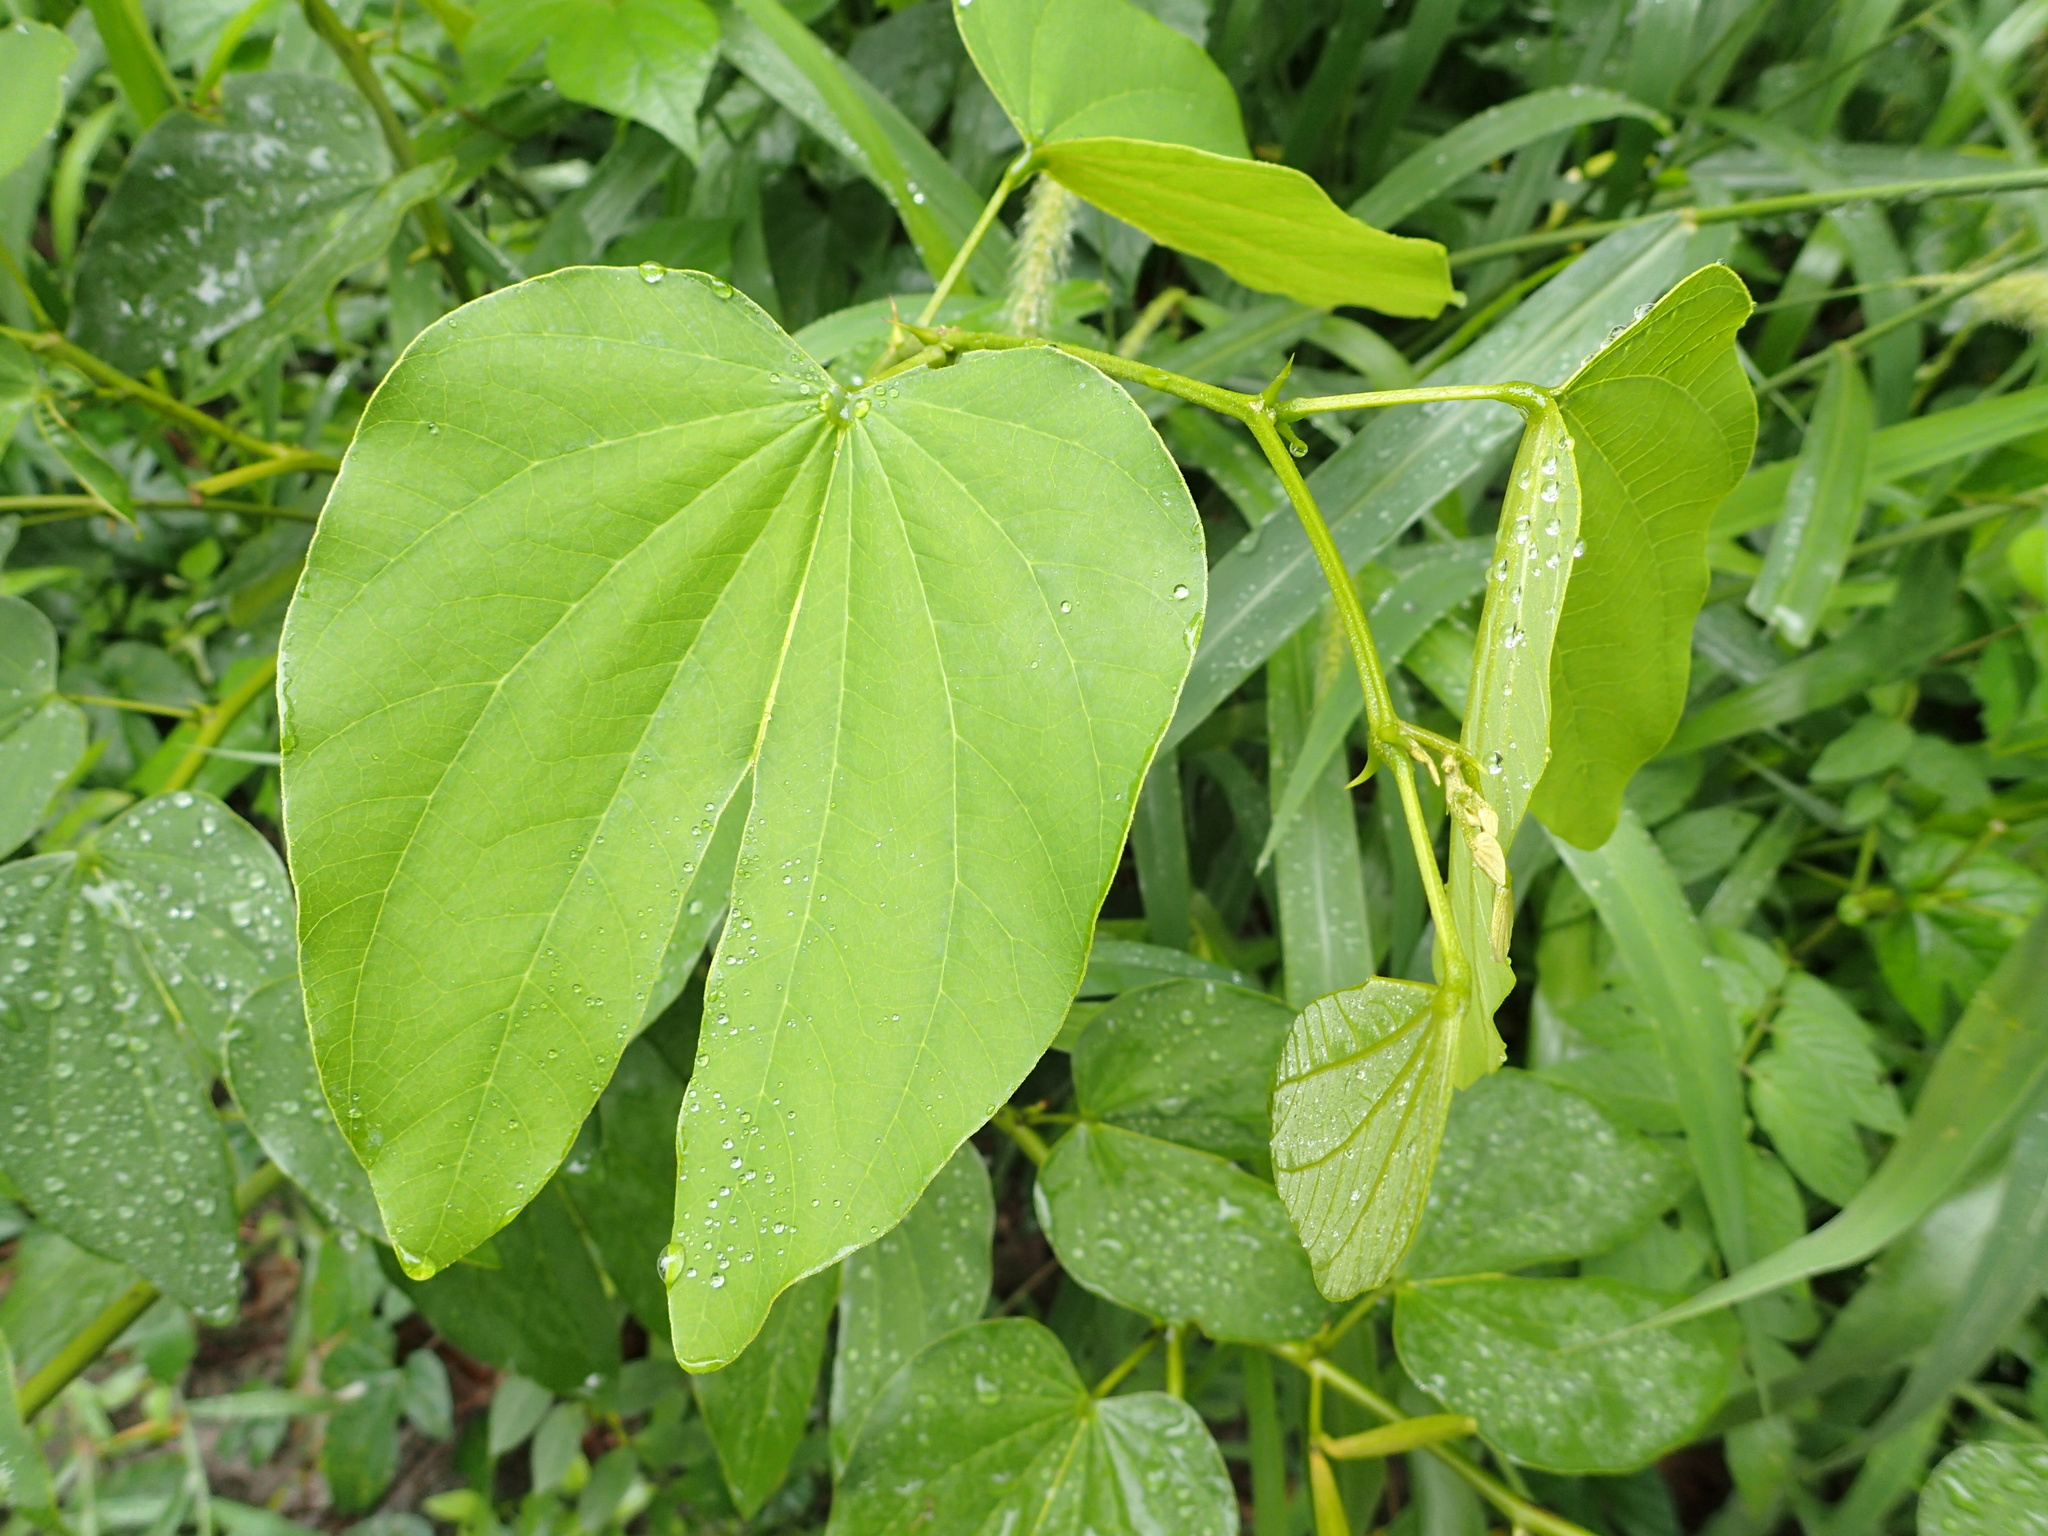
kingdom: Plantae
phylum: Tracheophyta
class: Magnoliopsida
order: Fabales
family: Fabaceae
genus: Bauhinia
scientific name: Bauhinia forficata
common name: Orchid tree
